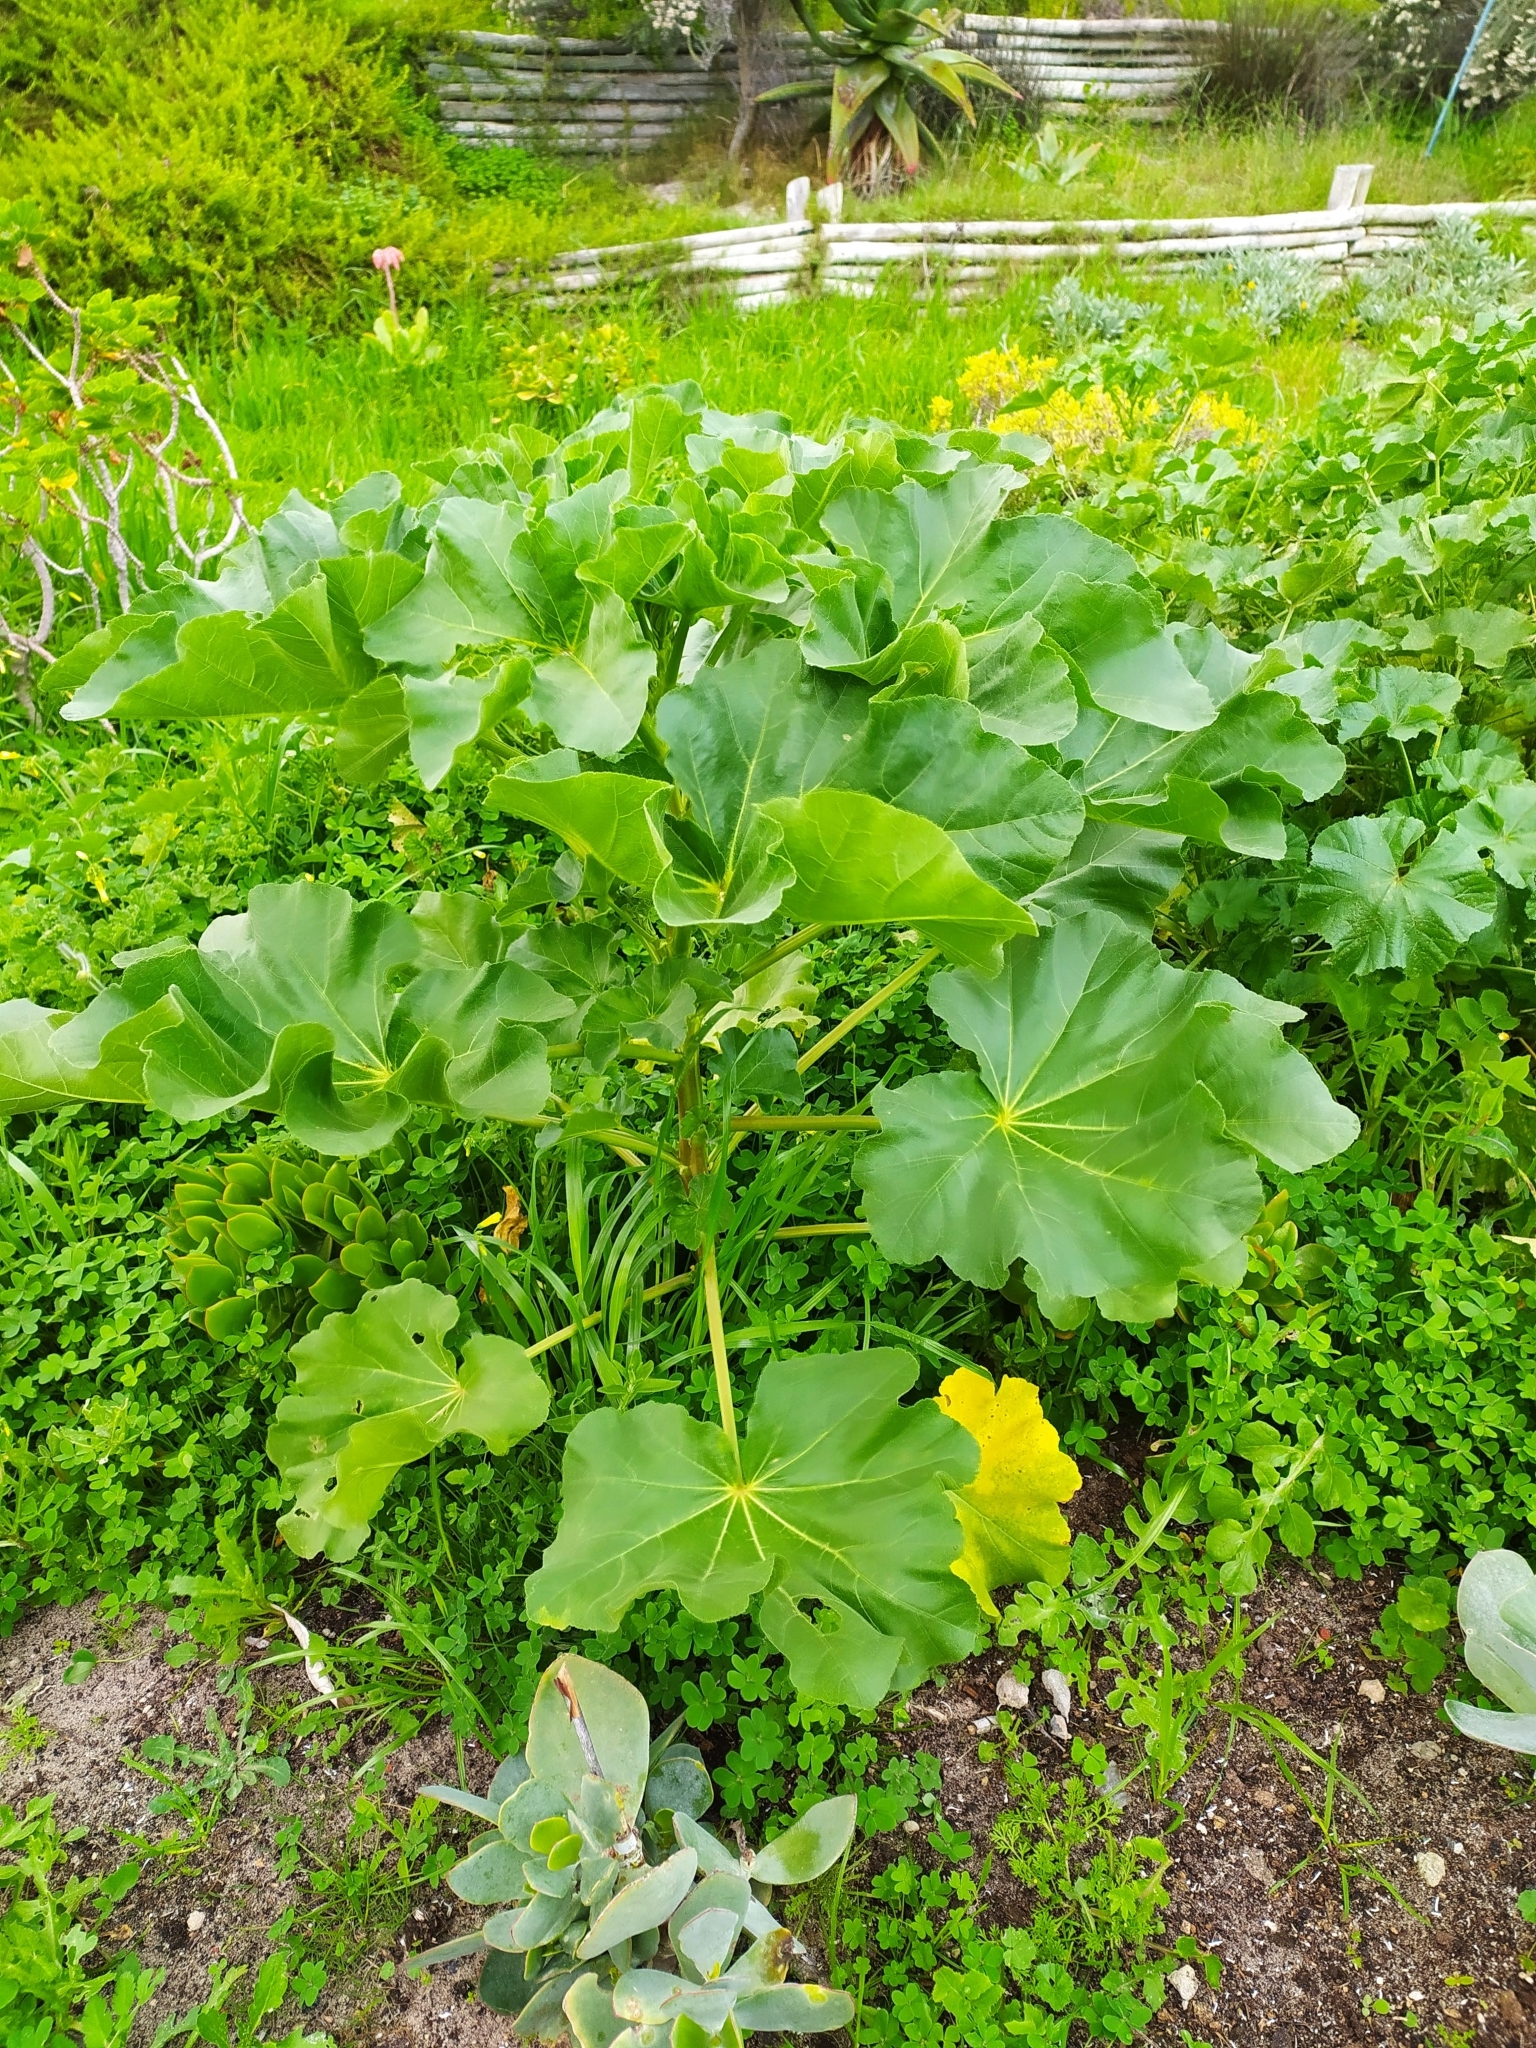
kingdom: Plantae
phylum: Tracheophyta
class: Magnoliopsida
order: Malvales
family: Malvaceae
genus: Malva
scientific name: Malva arborea
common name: Tree mallow
